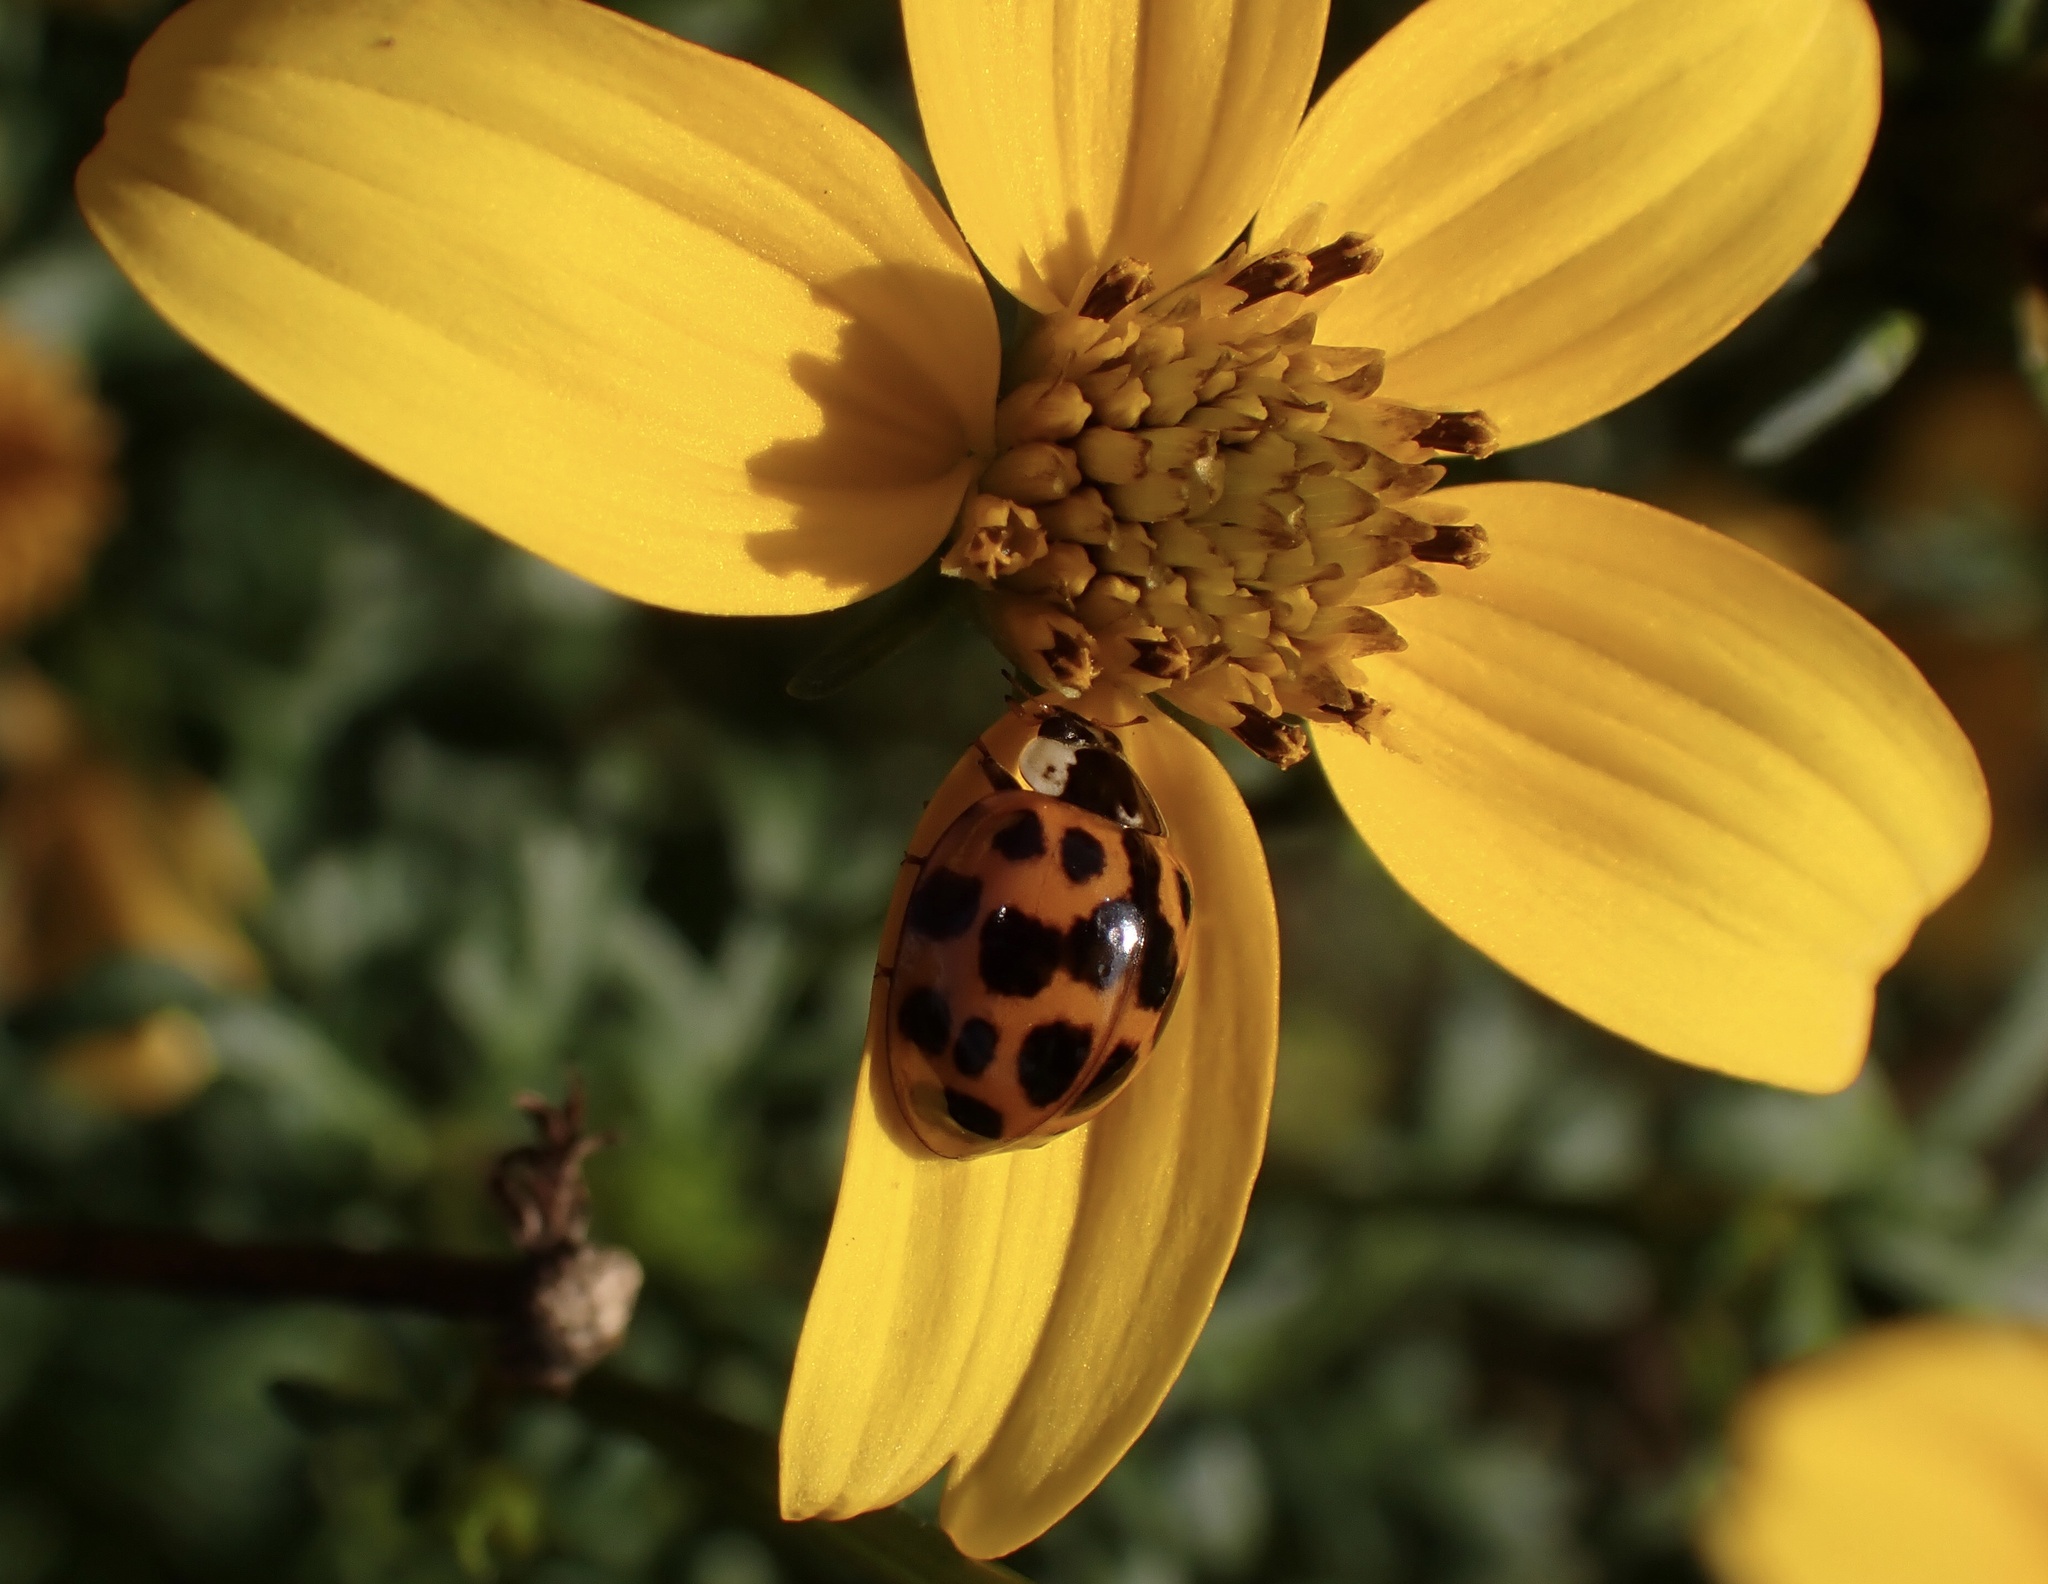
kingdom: Animalia
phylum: Arthropoda
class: Insecta
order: Coleoptera
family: Coccinellidae
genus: Harmonia
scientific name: Harmonia axyridis
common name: Harlequin ladybird
